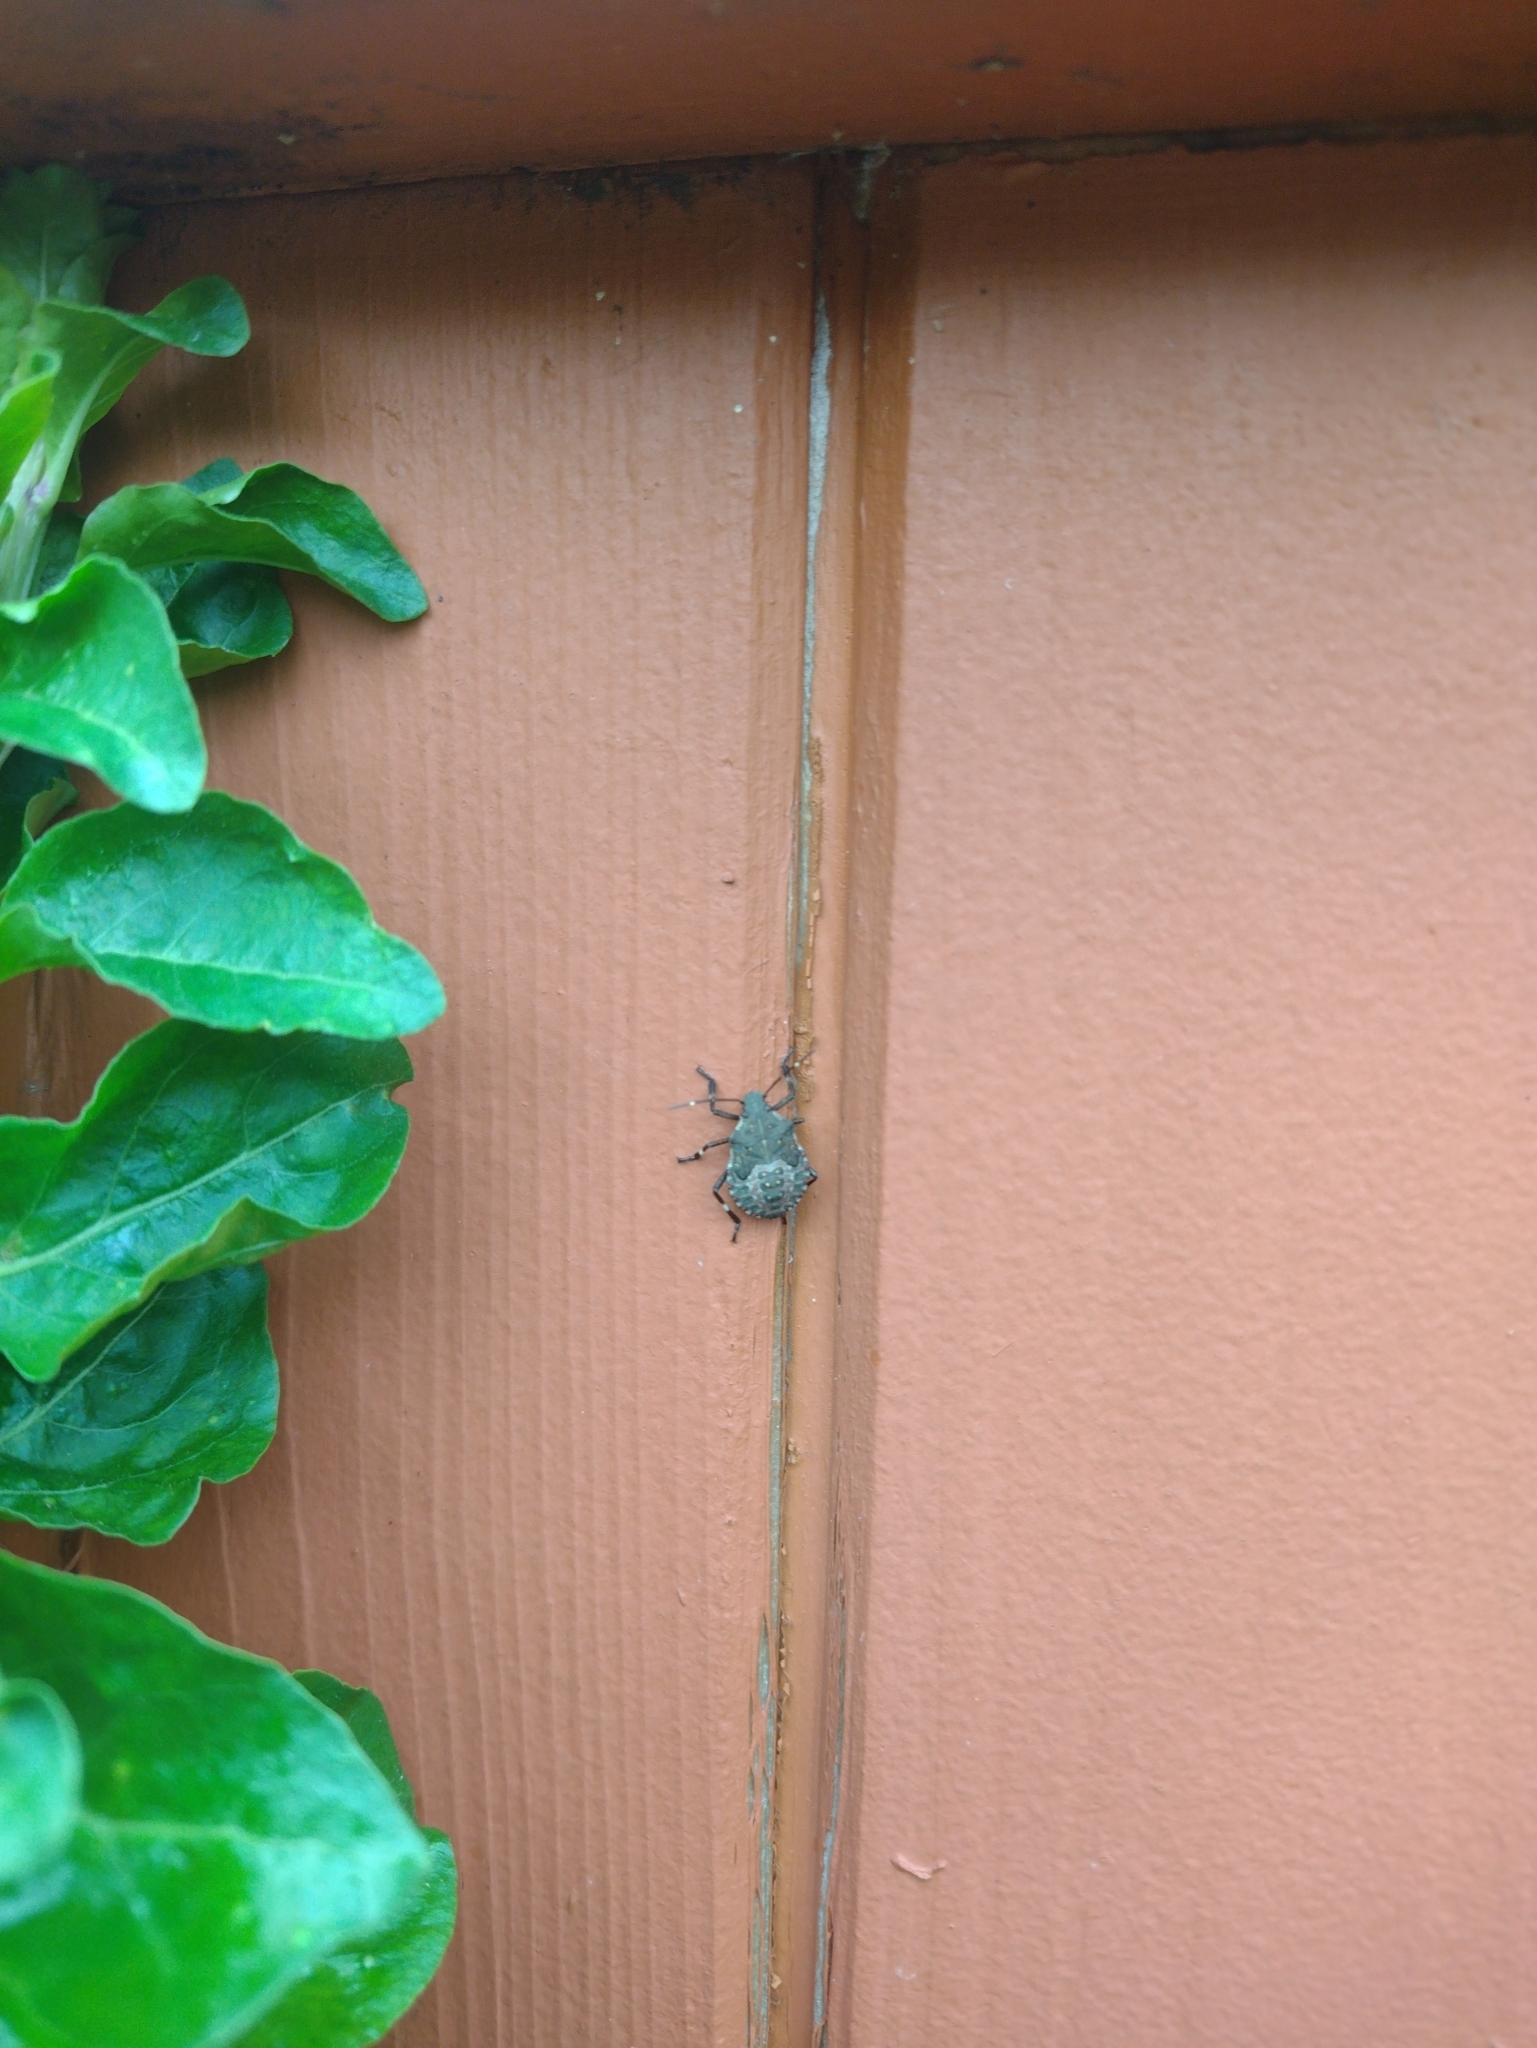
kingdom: Animalia
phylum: Arthropoda
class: Insecta
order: Hemiptera
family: Pentatomidae
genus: Halyomorpha
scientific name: Halyomorpha halys
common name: Brown marmorated stink bug
